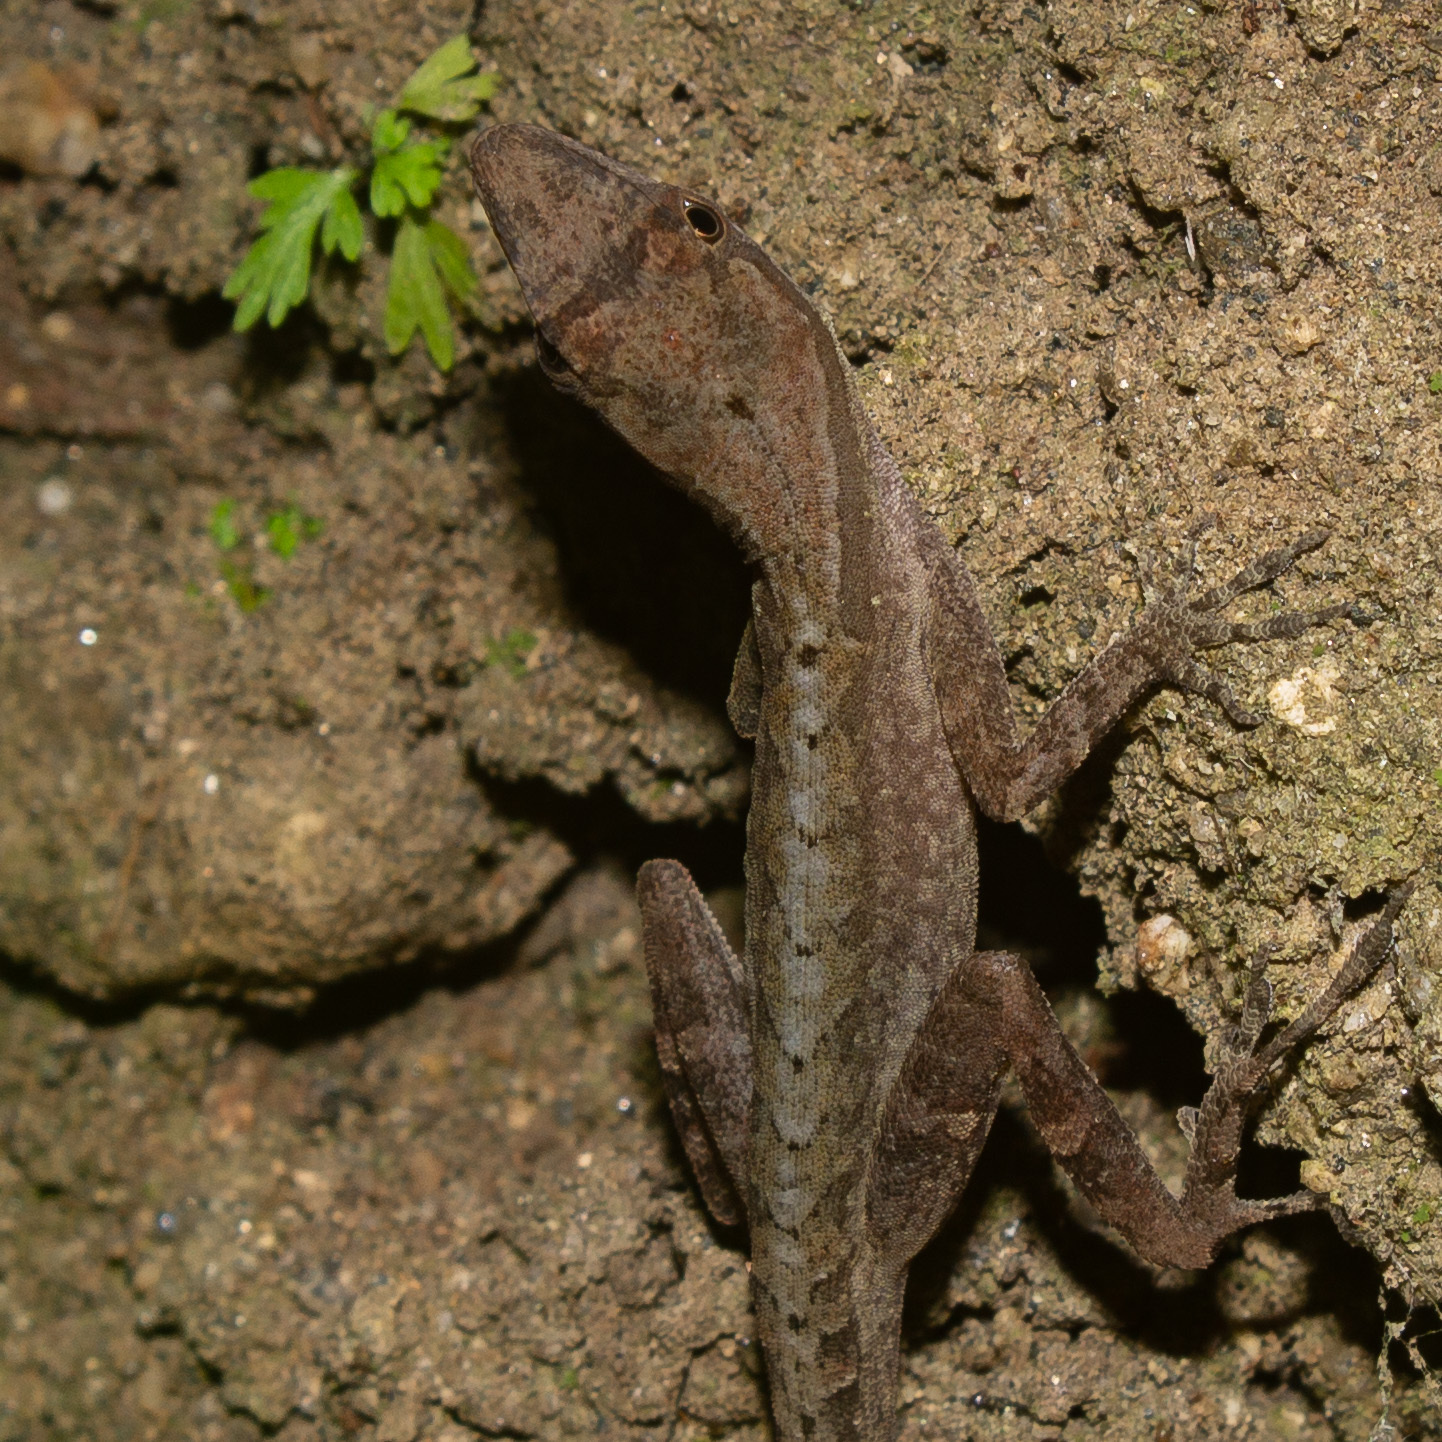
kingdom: Animalia
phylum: Chordata
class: Squamata
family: Dactyloidae
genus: Anolis
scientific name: Anolis gaigei
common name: Gaige’s anole
